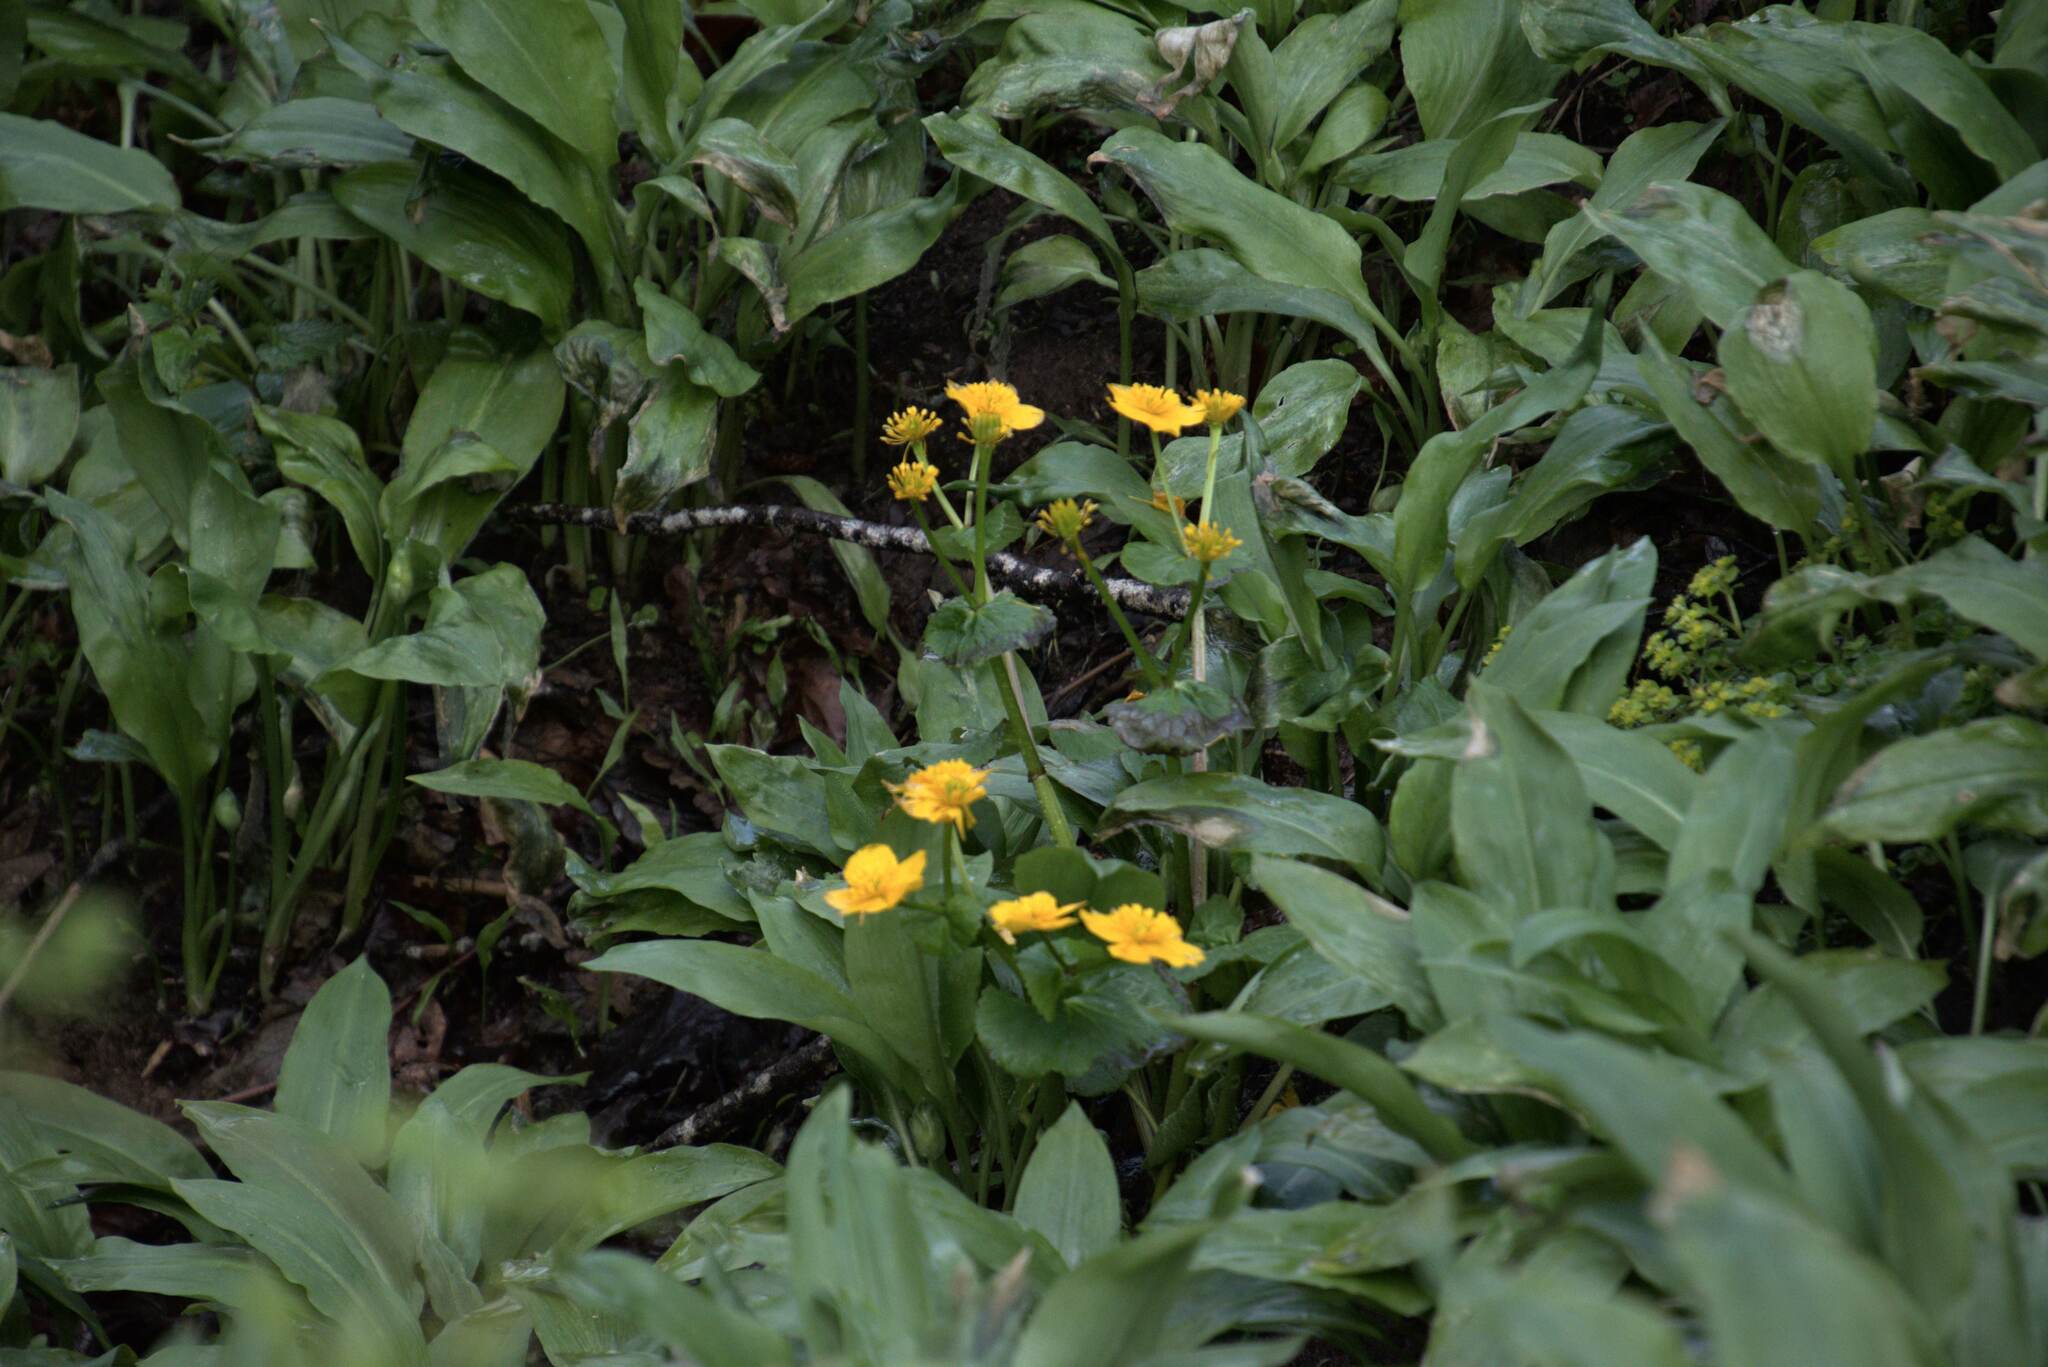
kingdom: Plantae
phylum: Tracheophyta
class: Magnoliopsida
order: Ranunculales
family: Ranunculaceae
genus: Caltha
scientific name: Caltha palustris
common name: Marsh marigold
